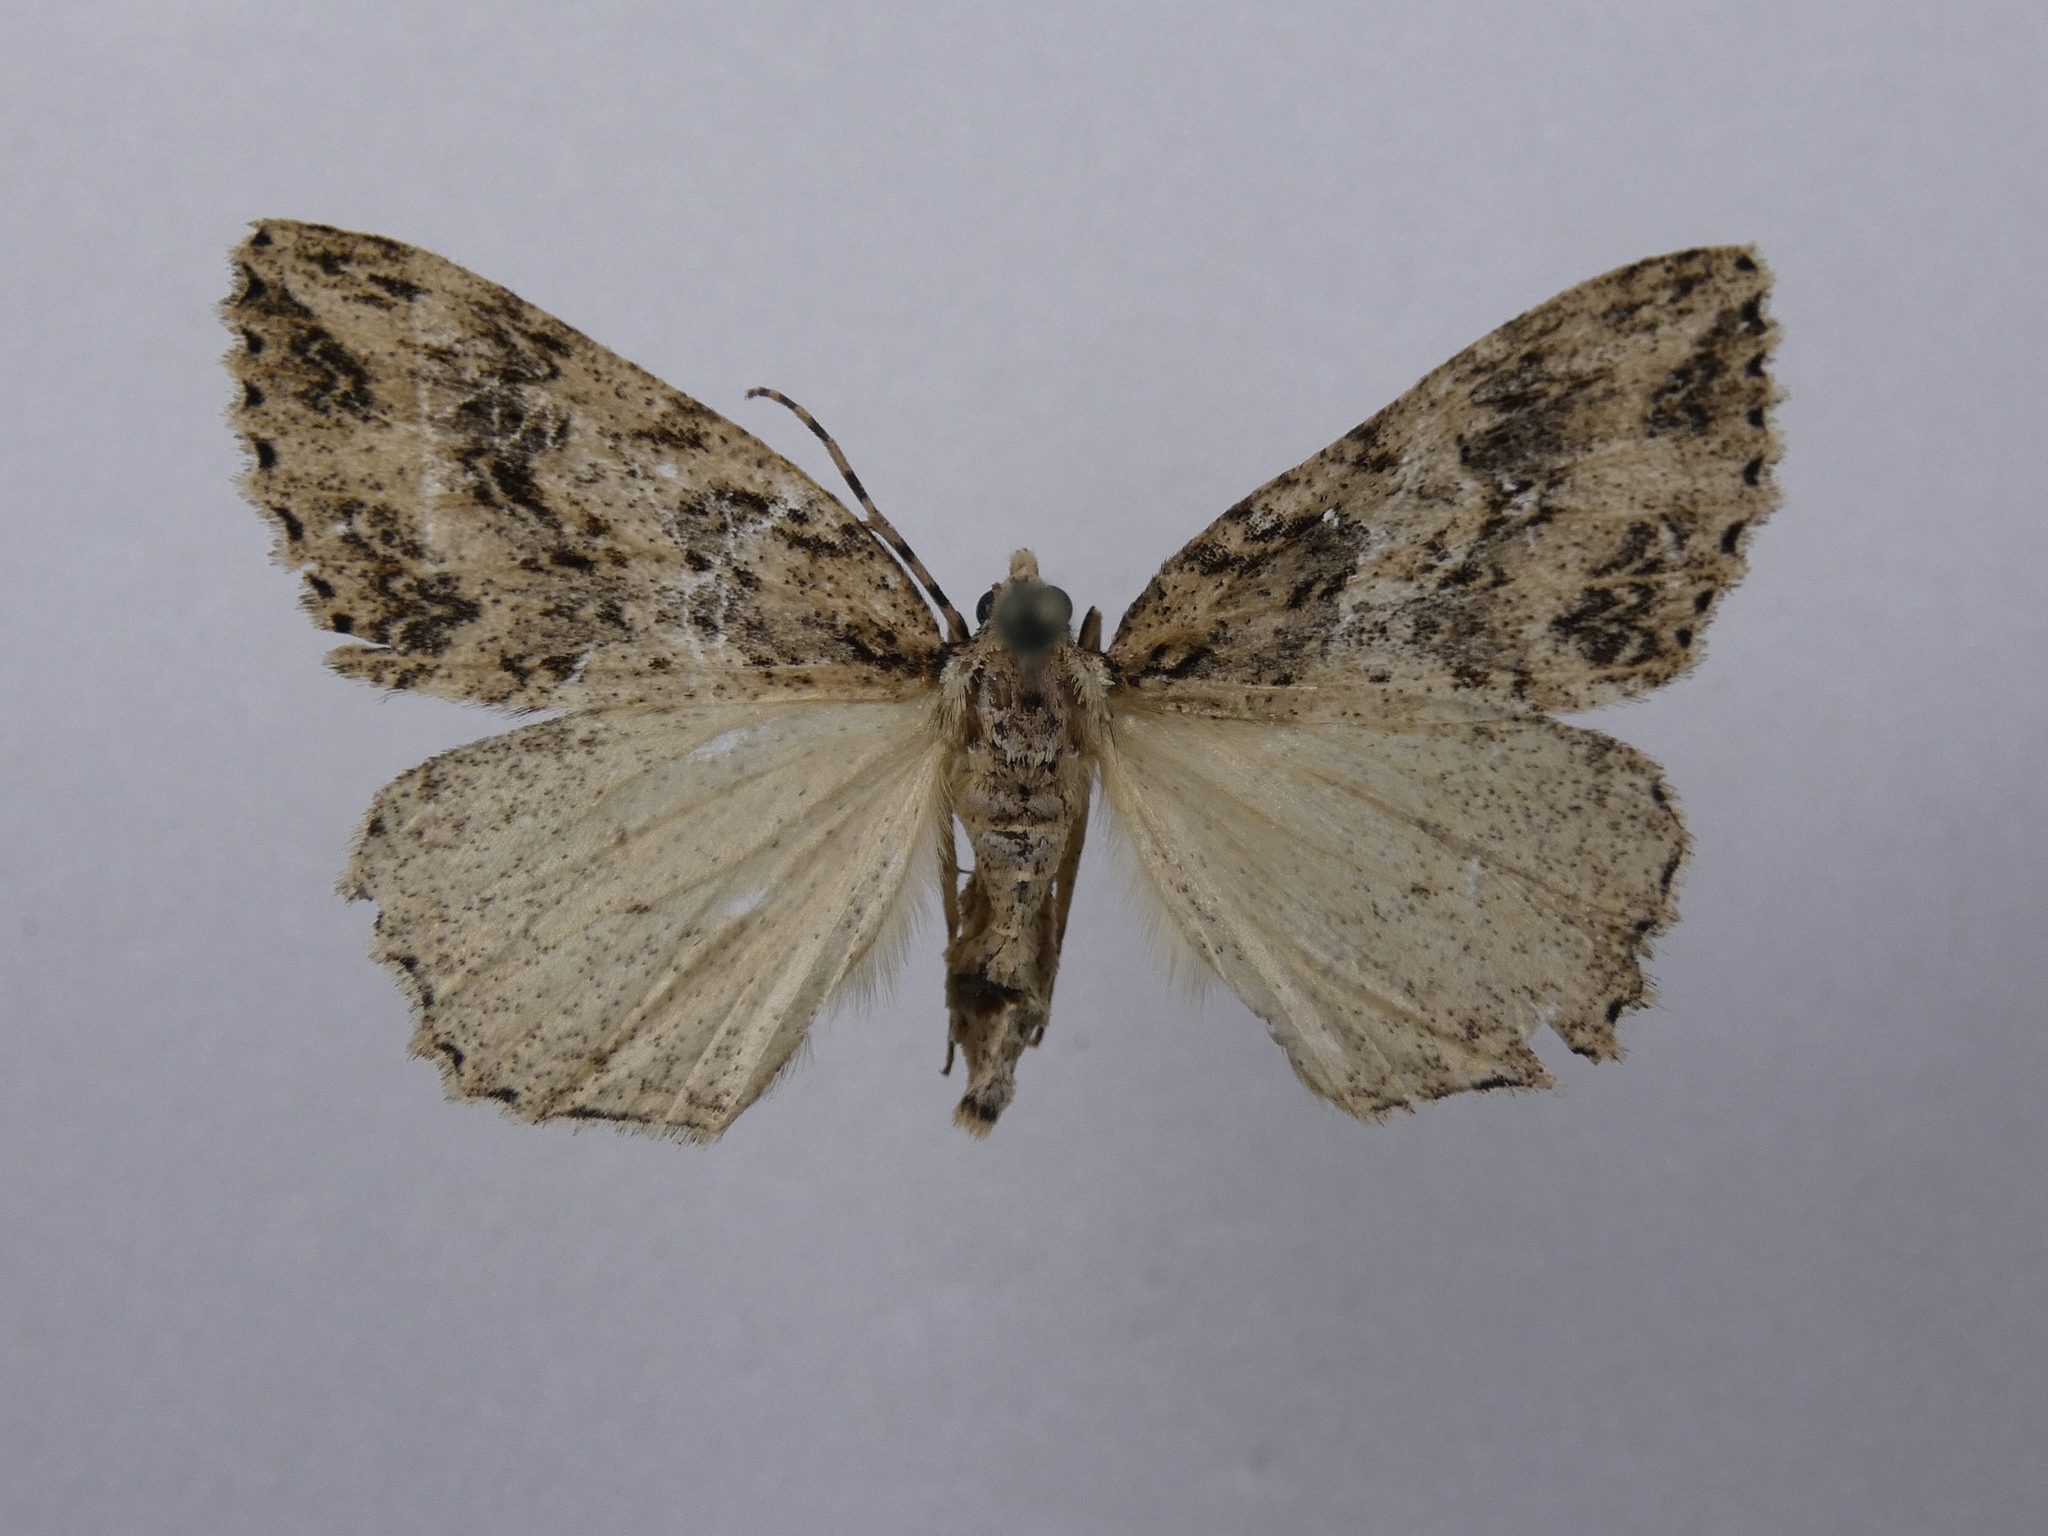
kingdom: Animalia
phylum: Arthropoda
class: Insecta
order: Lepidoptera
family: Geometridae
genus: Pseudocoremia
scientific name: Pseudocoremia rudisata
